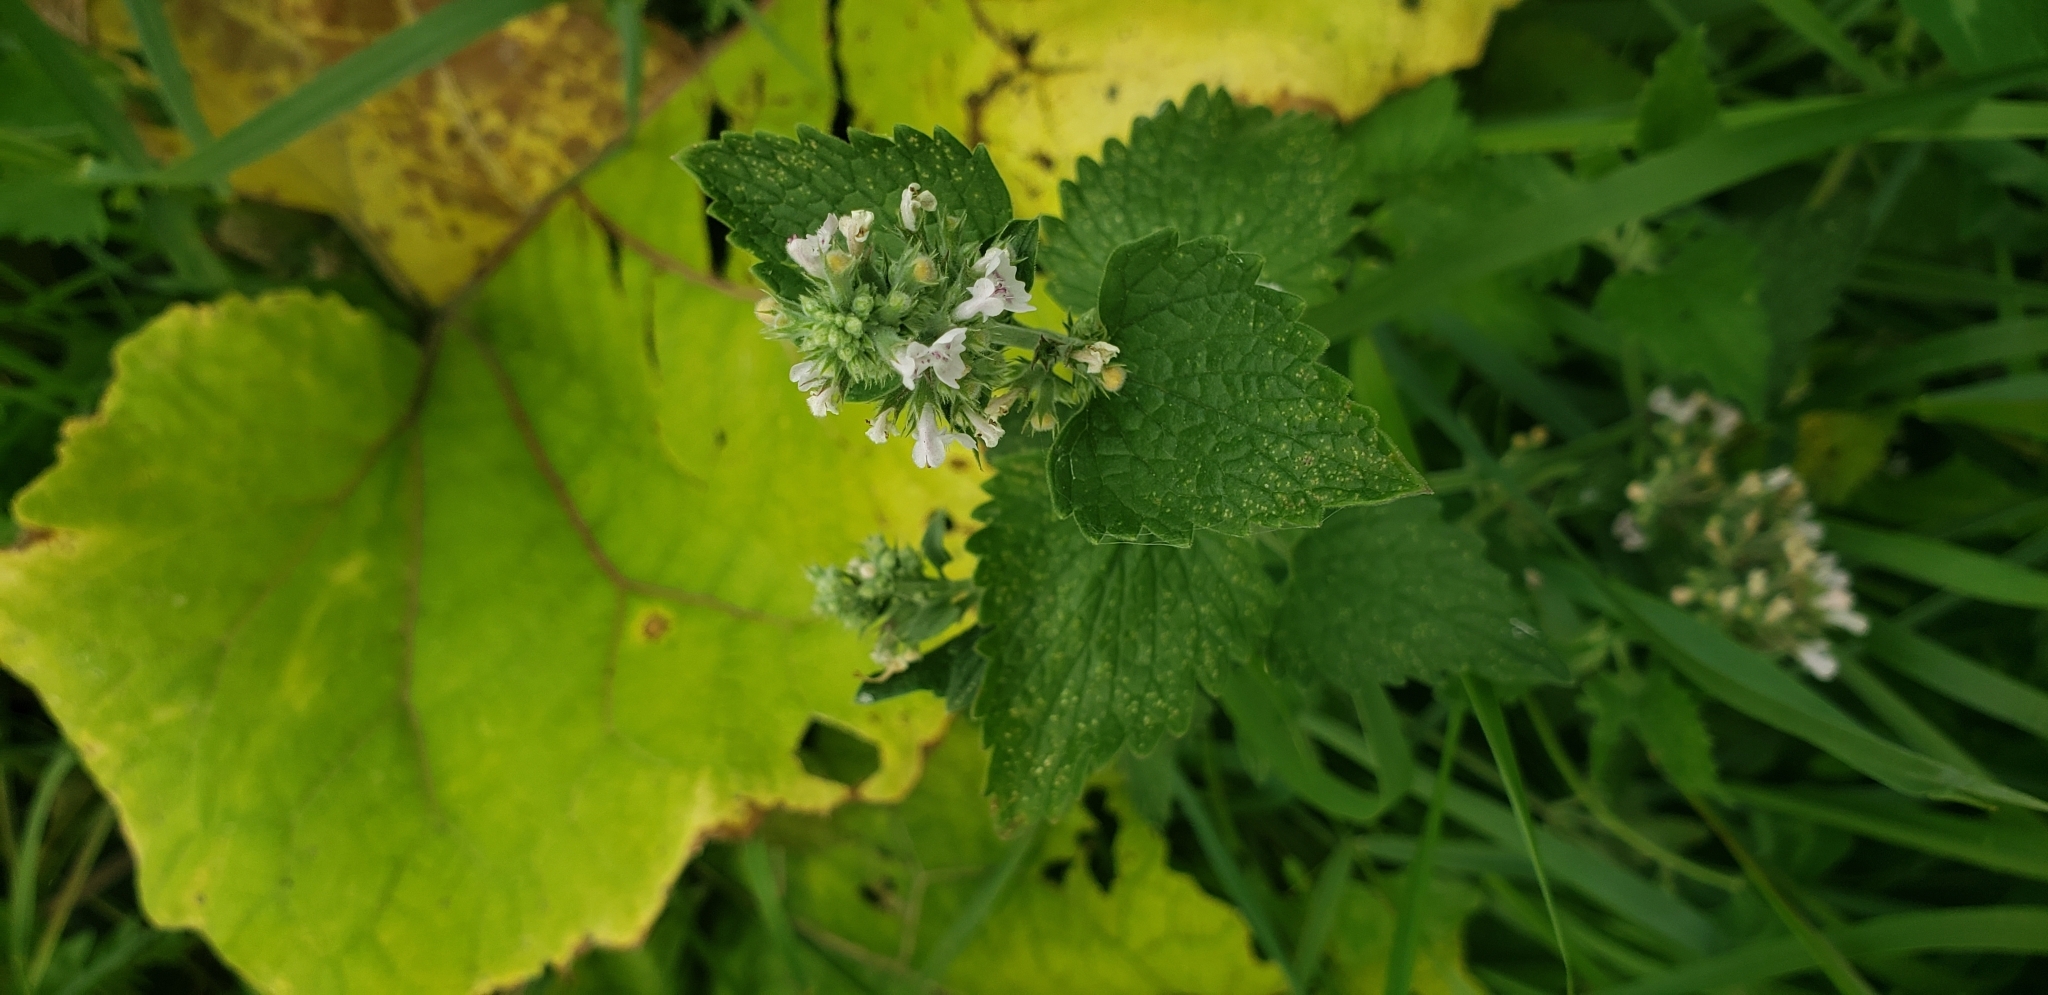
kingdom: Plantae
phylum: Tracheophyta
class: Magnoliopsida
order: Lamiales
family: Lamiaceae
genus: Nepeta
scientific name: Nepeta cataria
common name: Catnip
